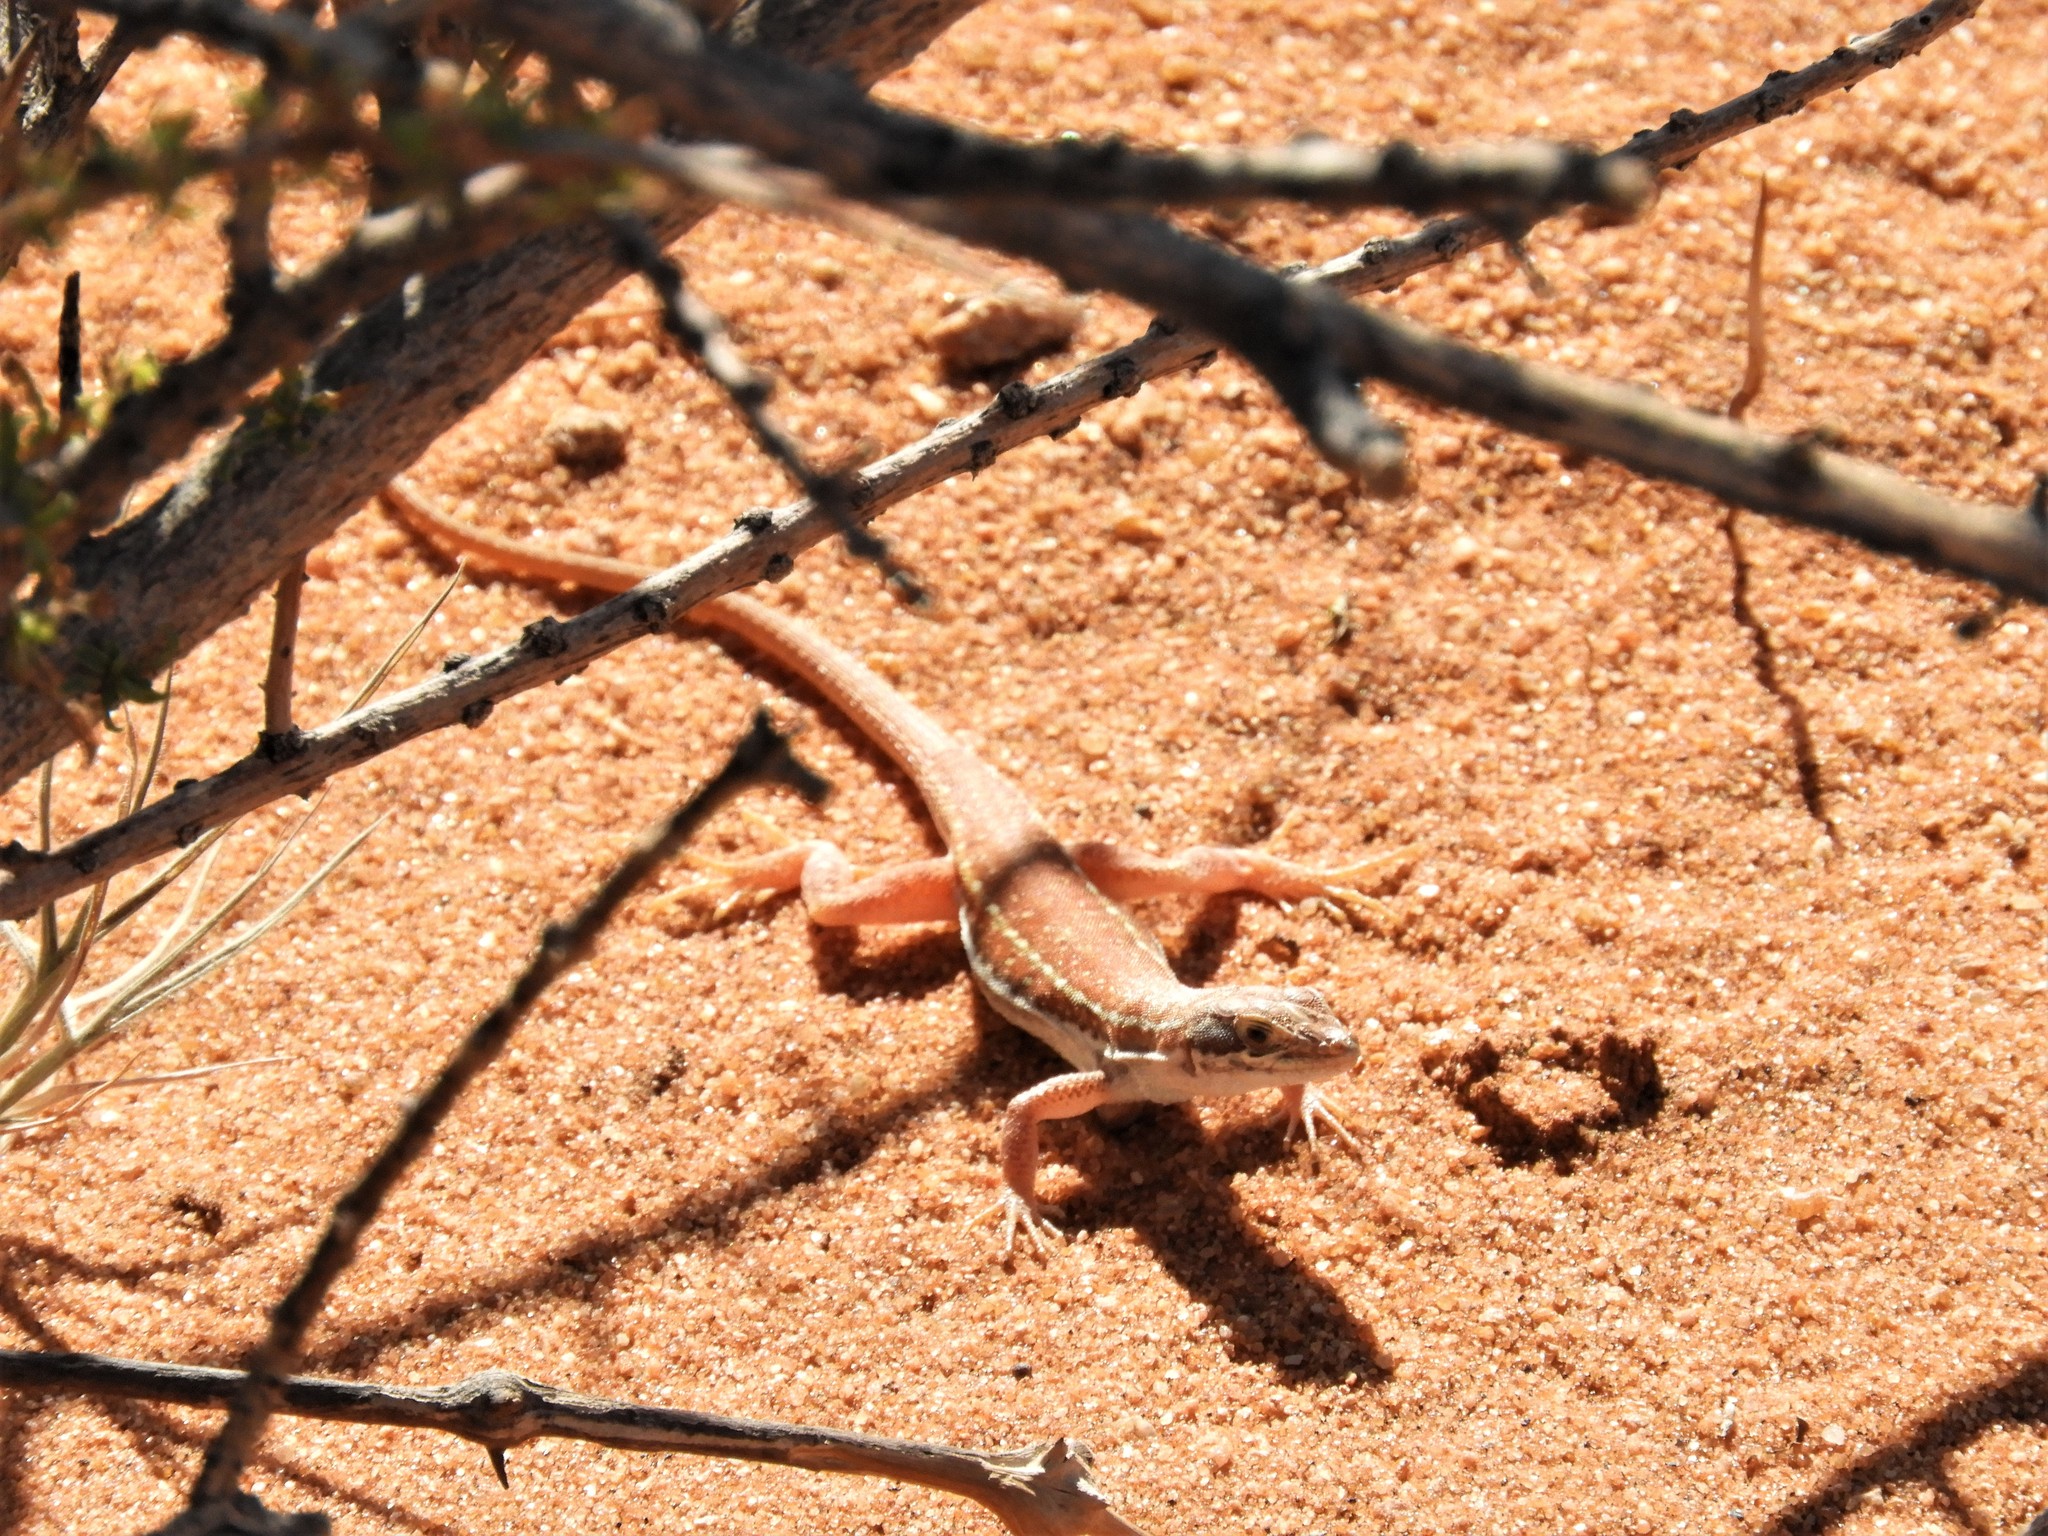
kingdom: Animalia
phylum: Chordata
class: Squamata
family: Lacertidae
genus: Pedioplanis
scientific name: Pedioplanis lineoocellata
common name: Spotted sand lizard
